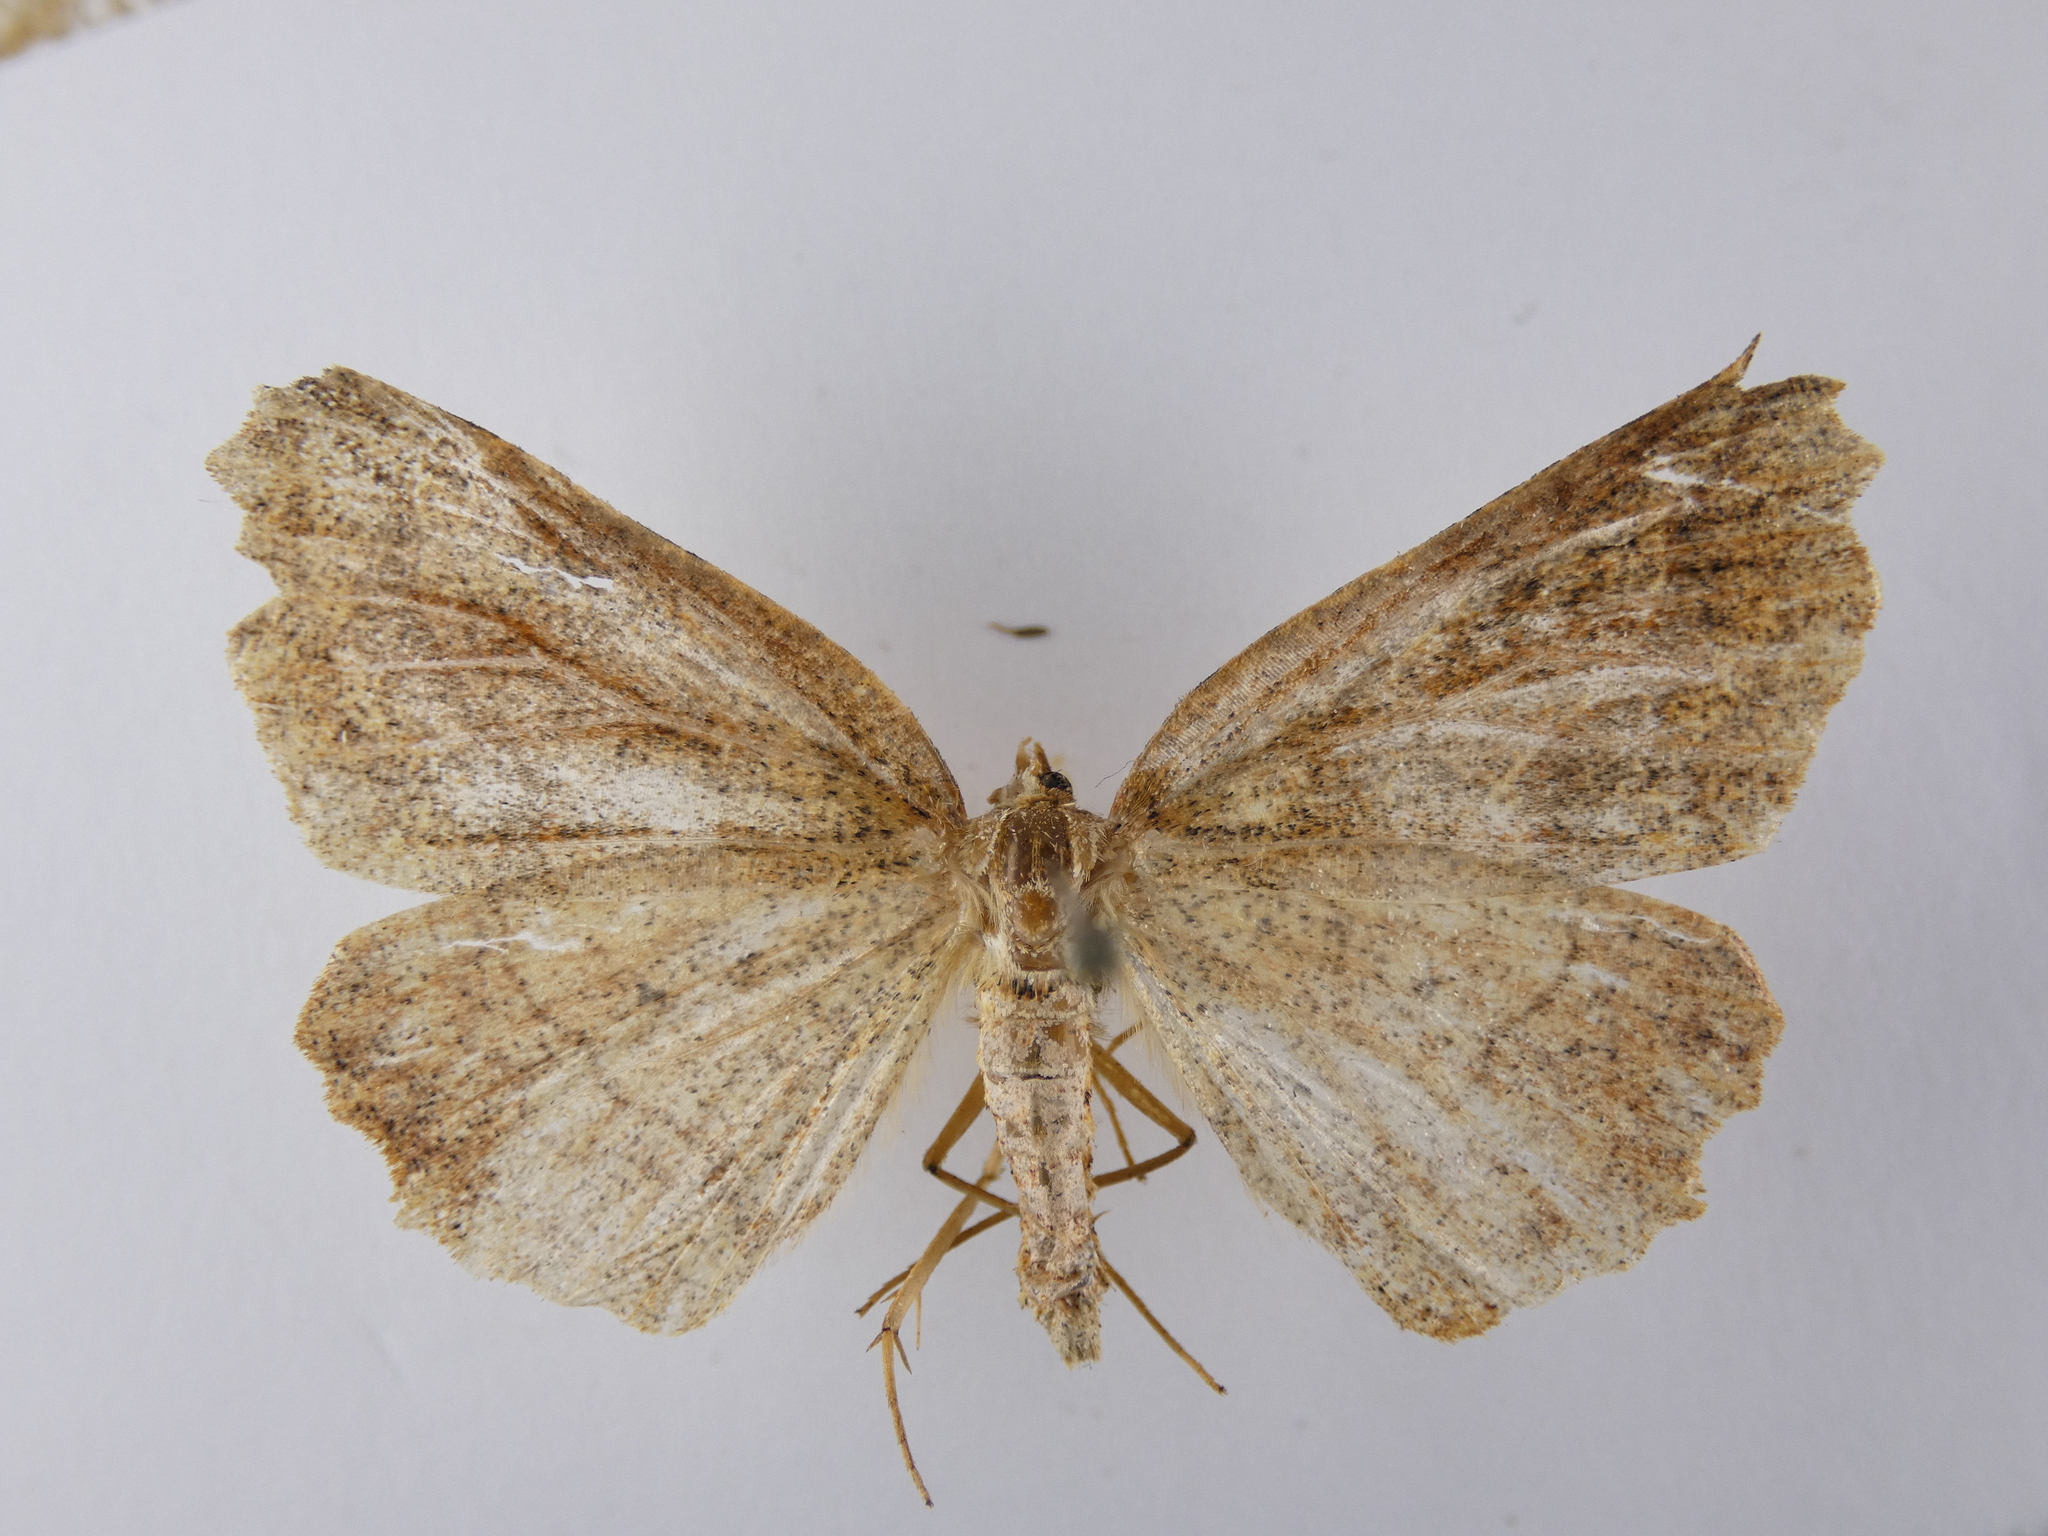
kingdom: Animalia
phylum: Arthropoda
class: Insecta
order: Lepidoptera
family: Geometridae
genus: Ischalis
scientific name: Ischalis variabilis
